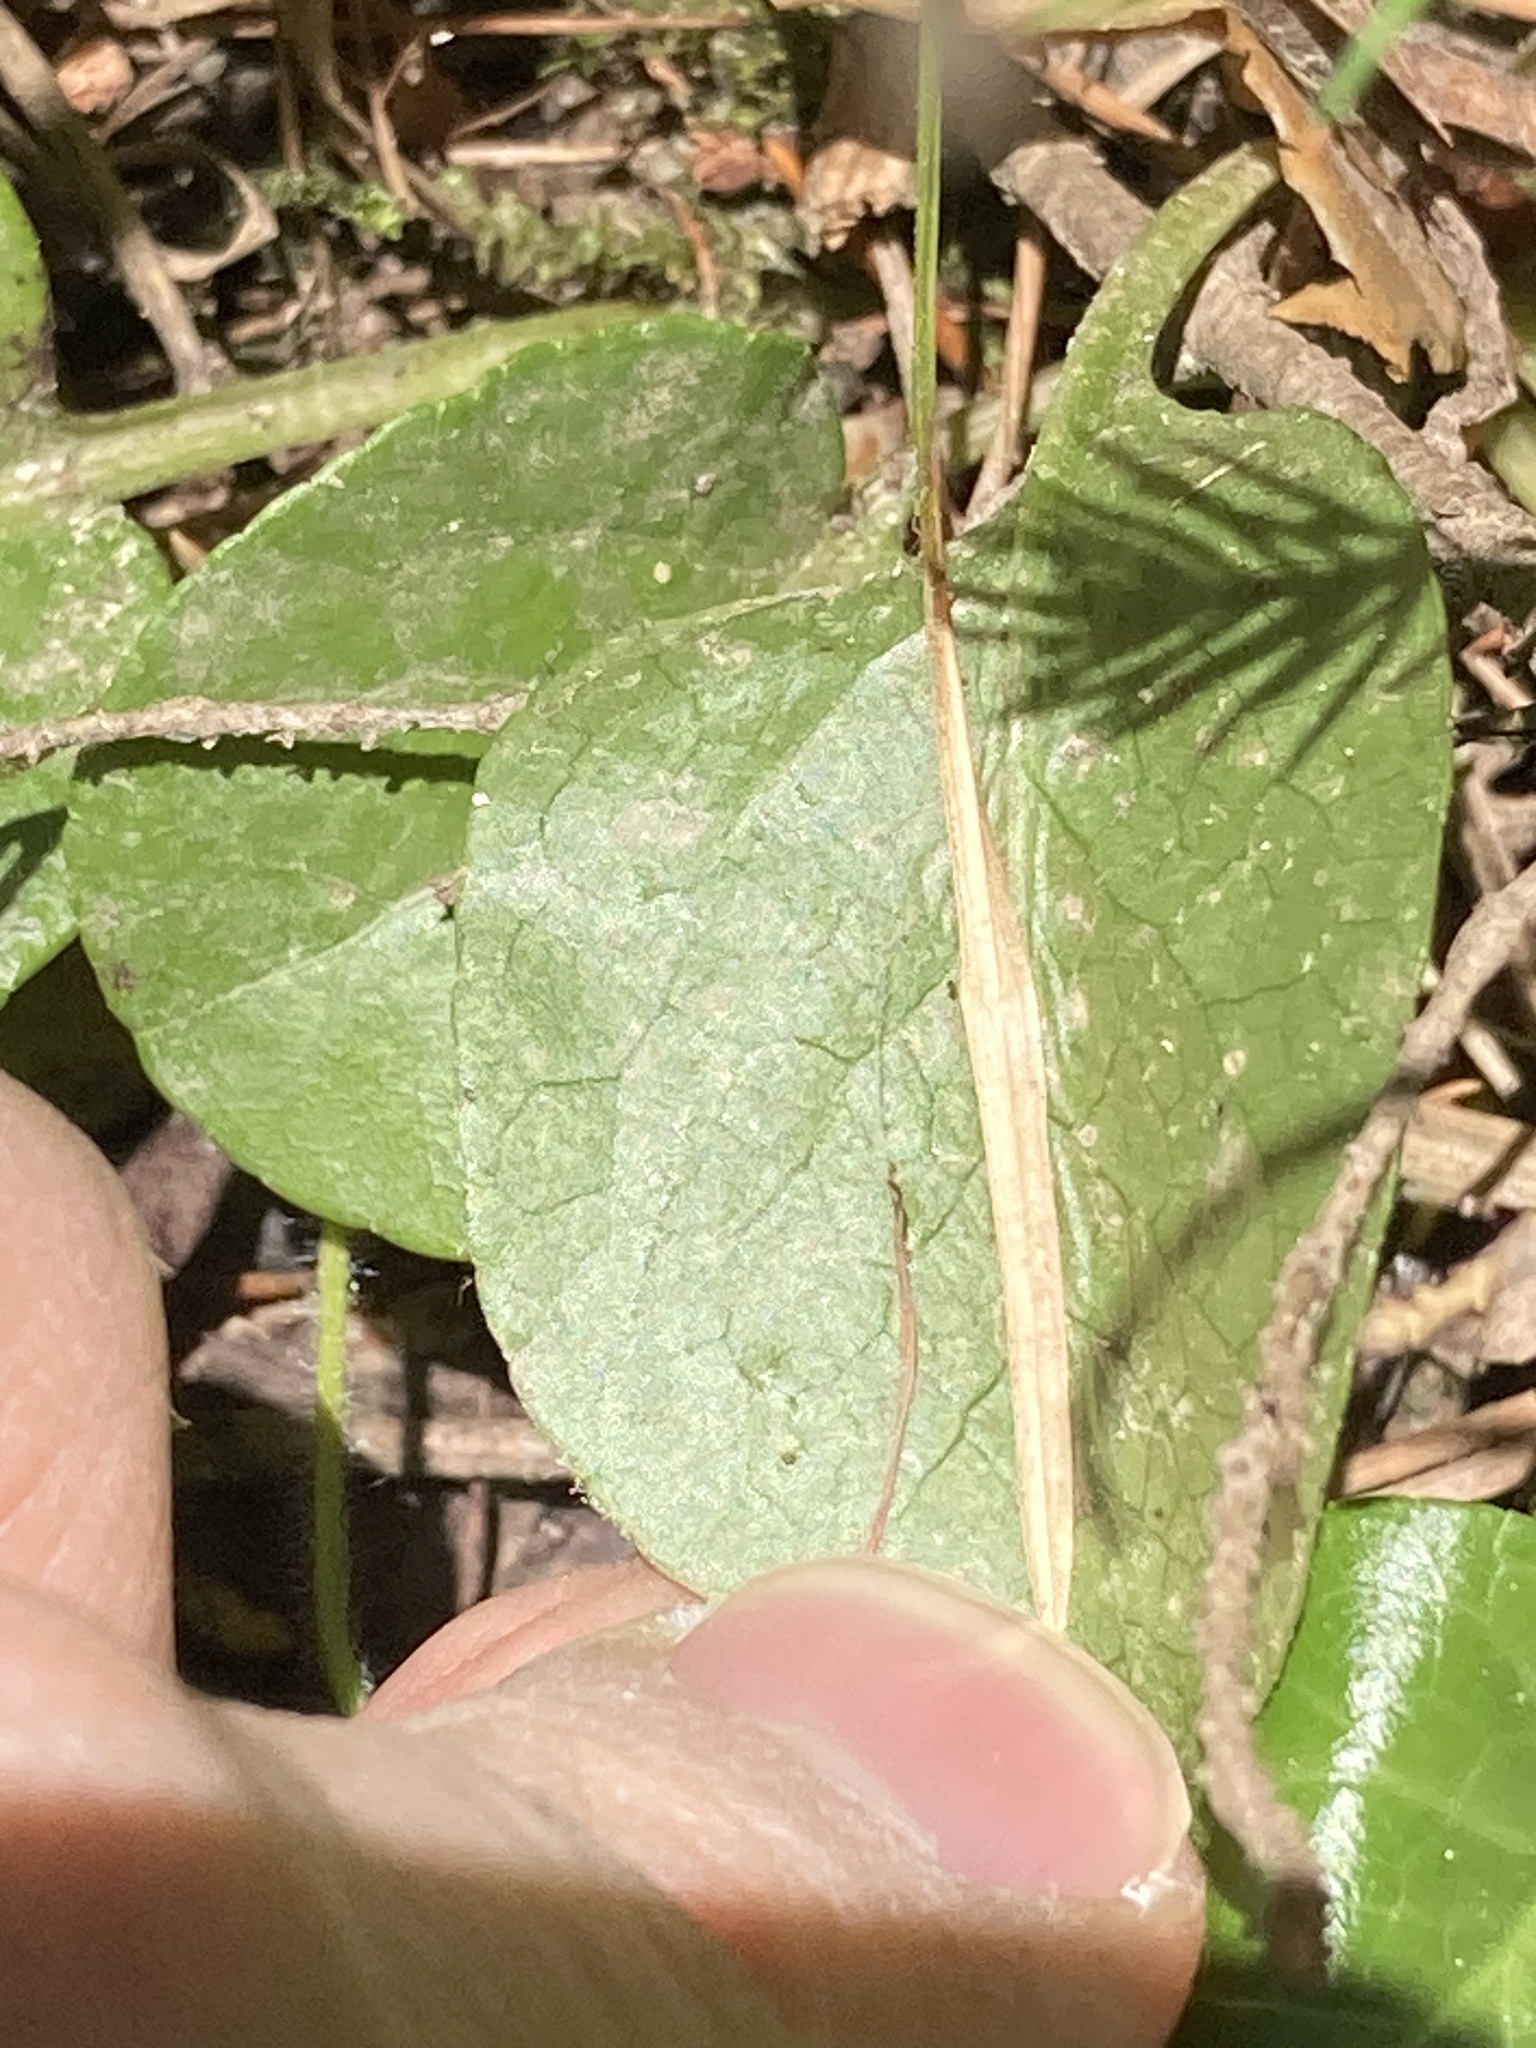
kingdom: Plantae
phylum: Tracheophyta
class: Magnoliopsida
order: Ericales
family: Ericaceae
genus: Pyrola
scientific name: Pyrola rotundifolia
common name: Round-leaved wintergreen
